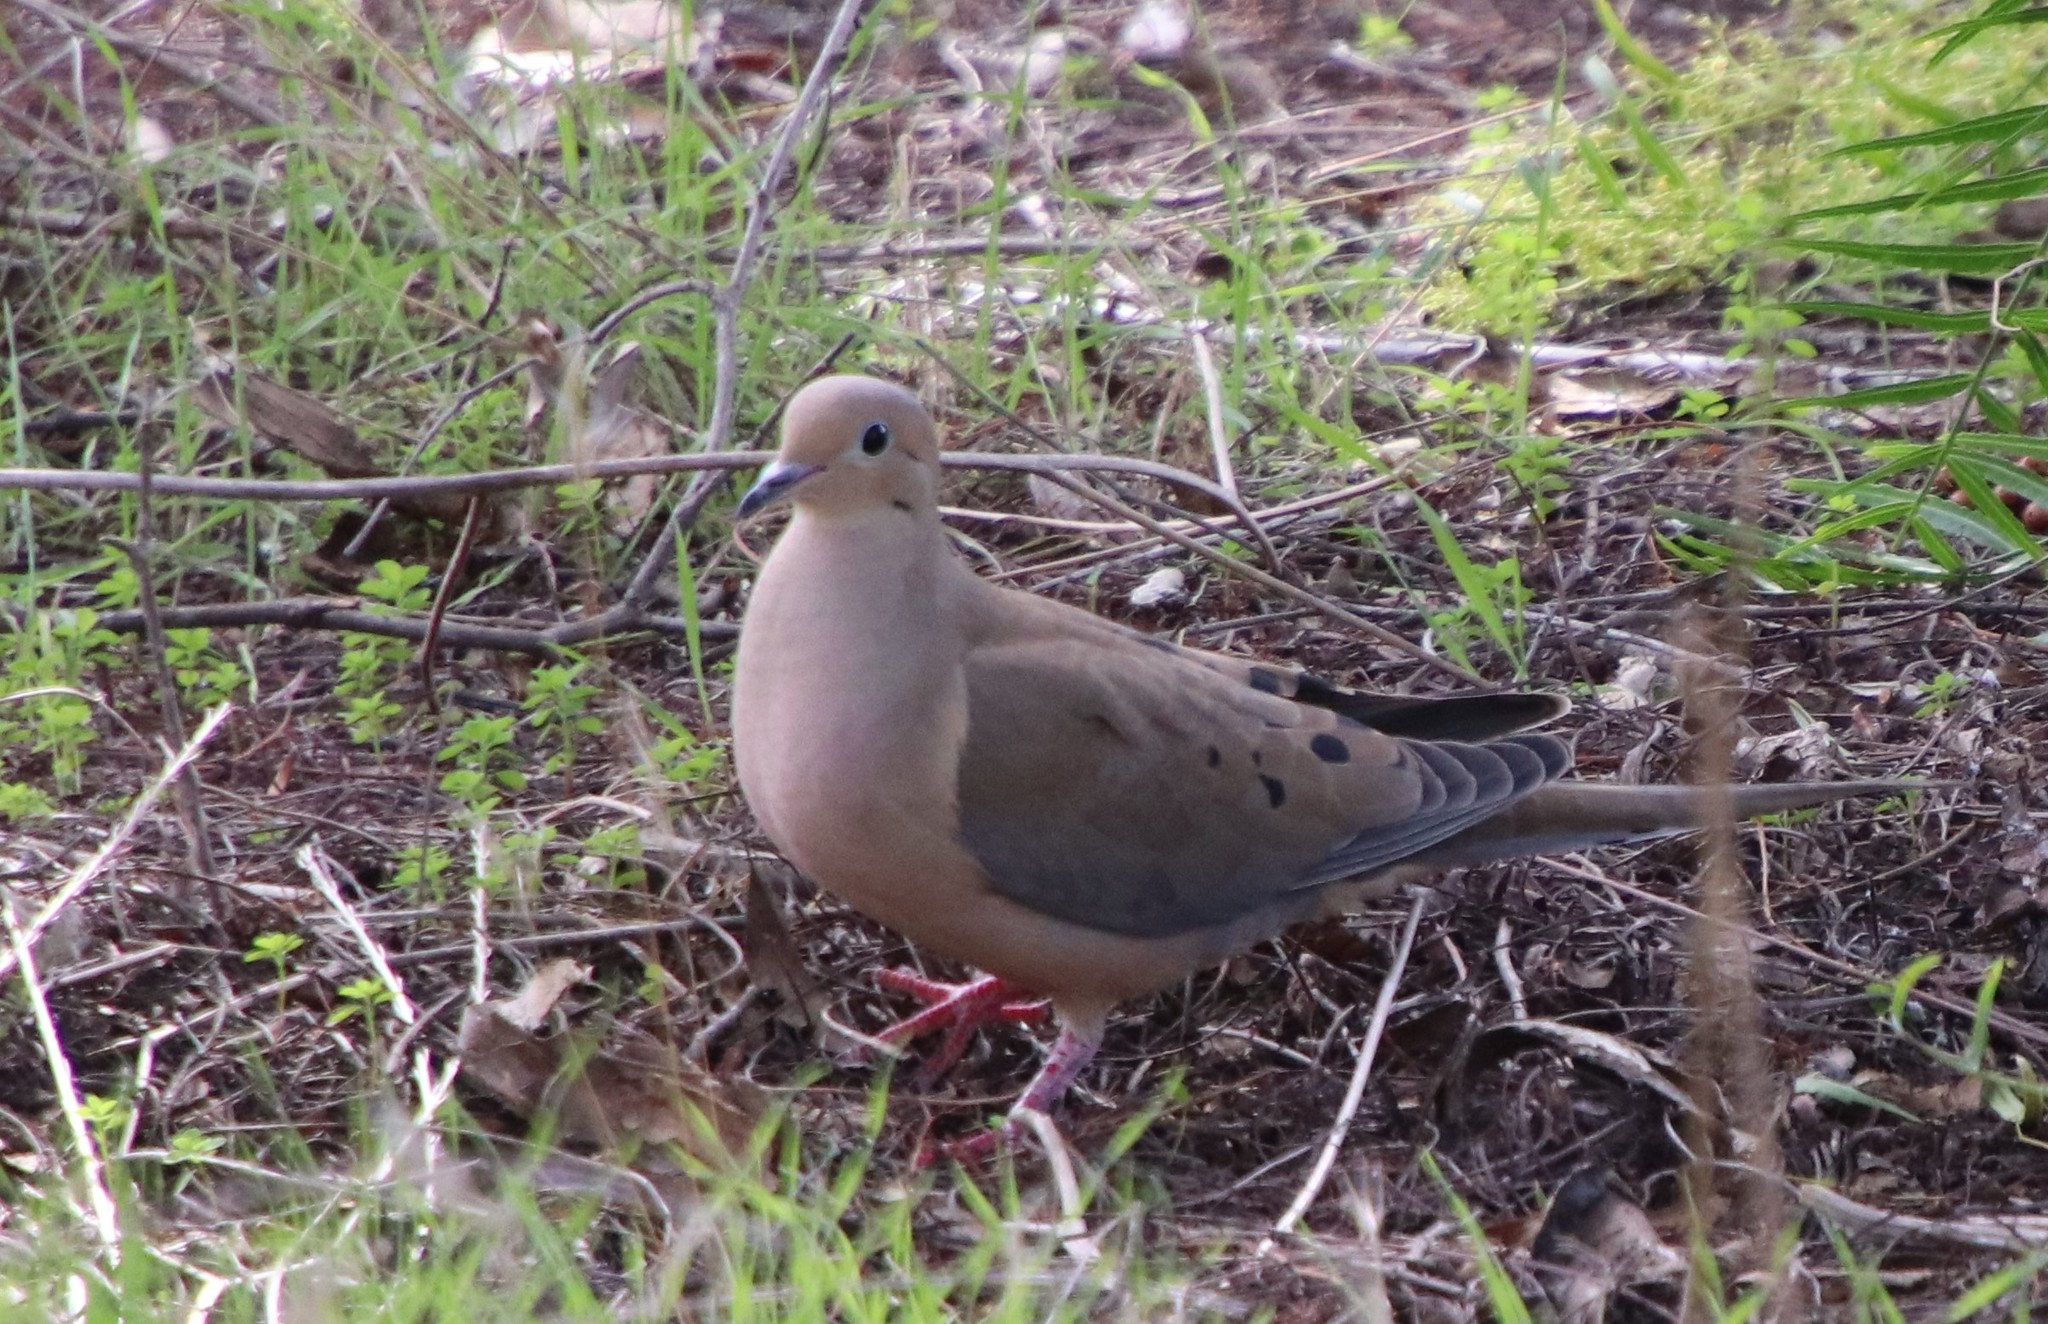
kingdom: Animalia
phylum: Chordata
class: Aves
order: Columbiformes
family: Columbidae
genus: Zenaida
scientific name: Zenaida macroura
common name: Mourning dove
